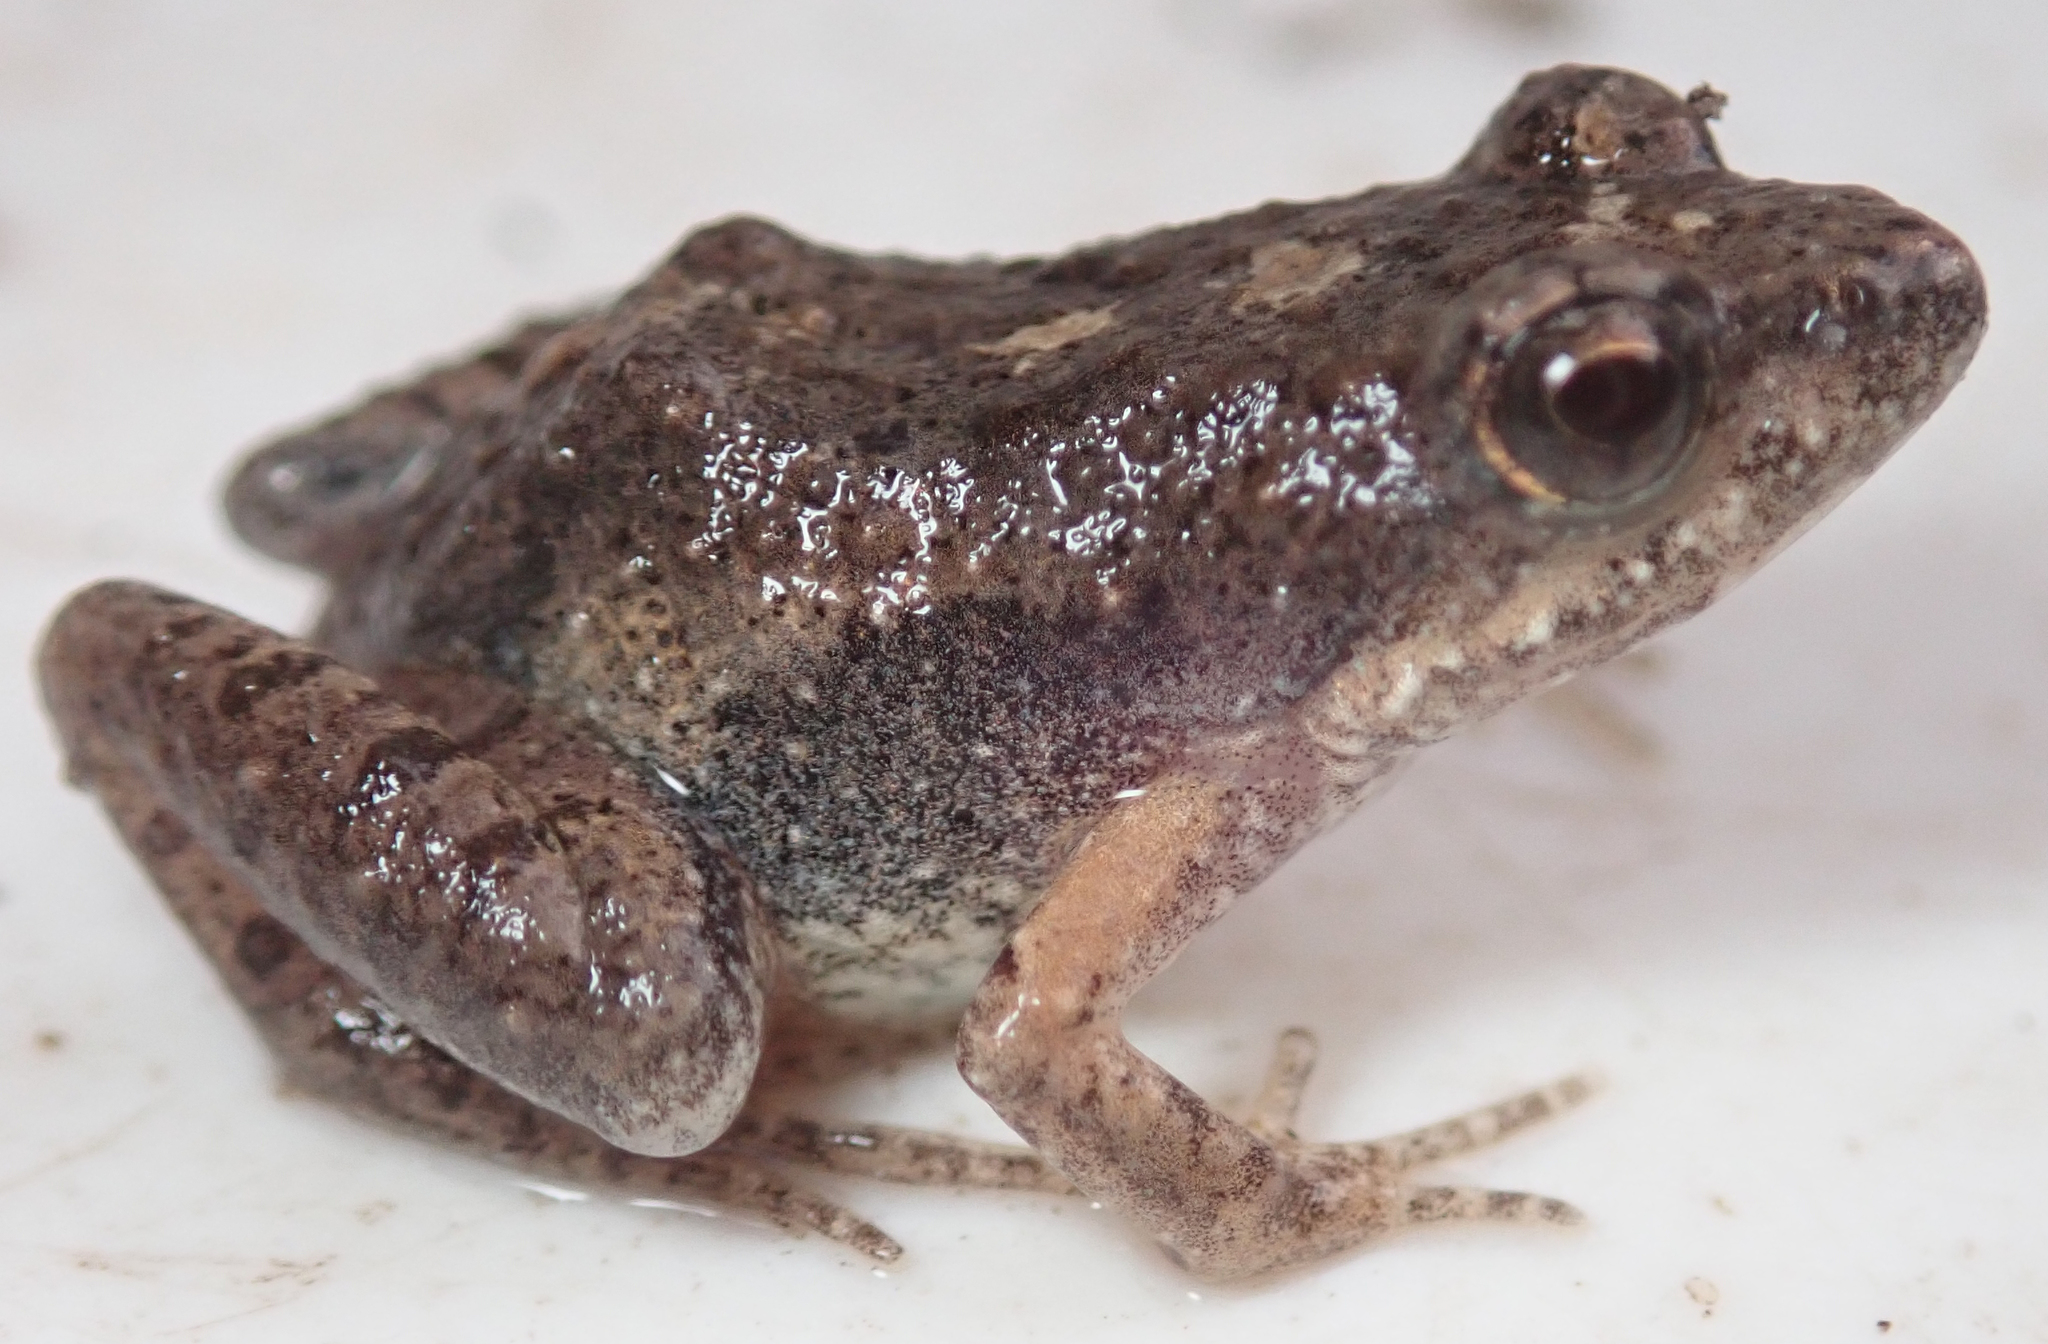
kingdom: Animalia
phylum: Chordata
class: Amphibia
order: Anura
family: Phrynobatrachidae
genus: Phrynobatrachus
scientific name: Phrynobatrachus mababiensis
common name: Dwarf puddle frog
